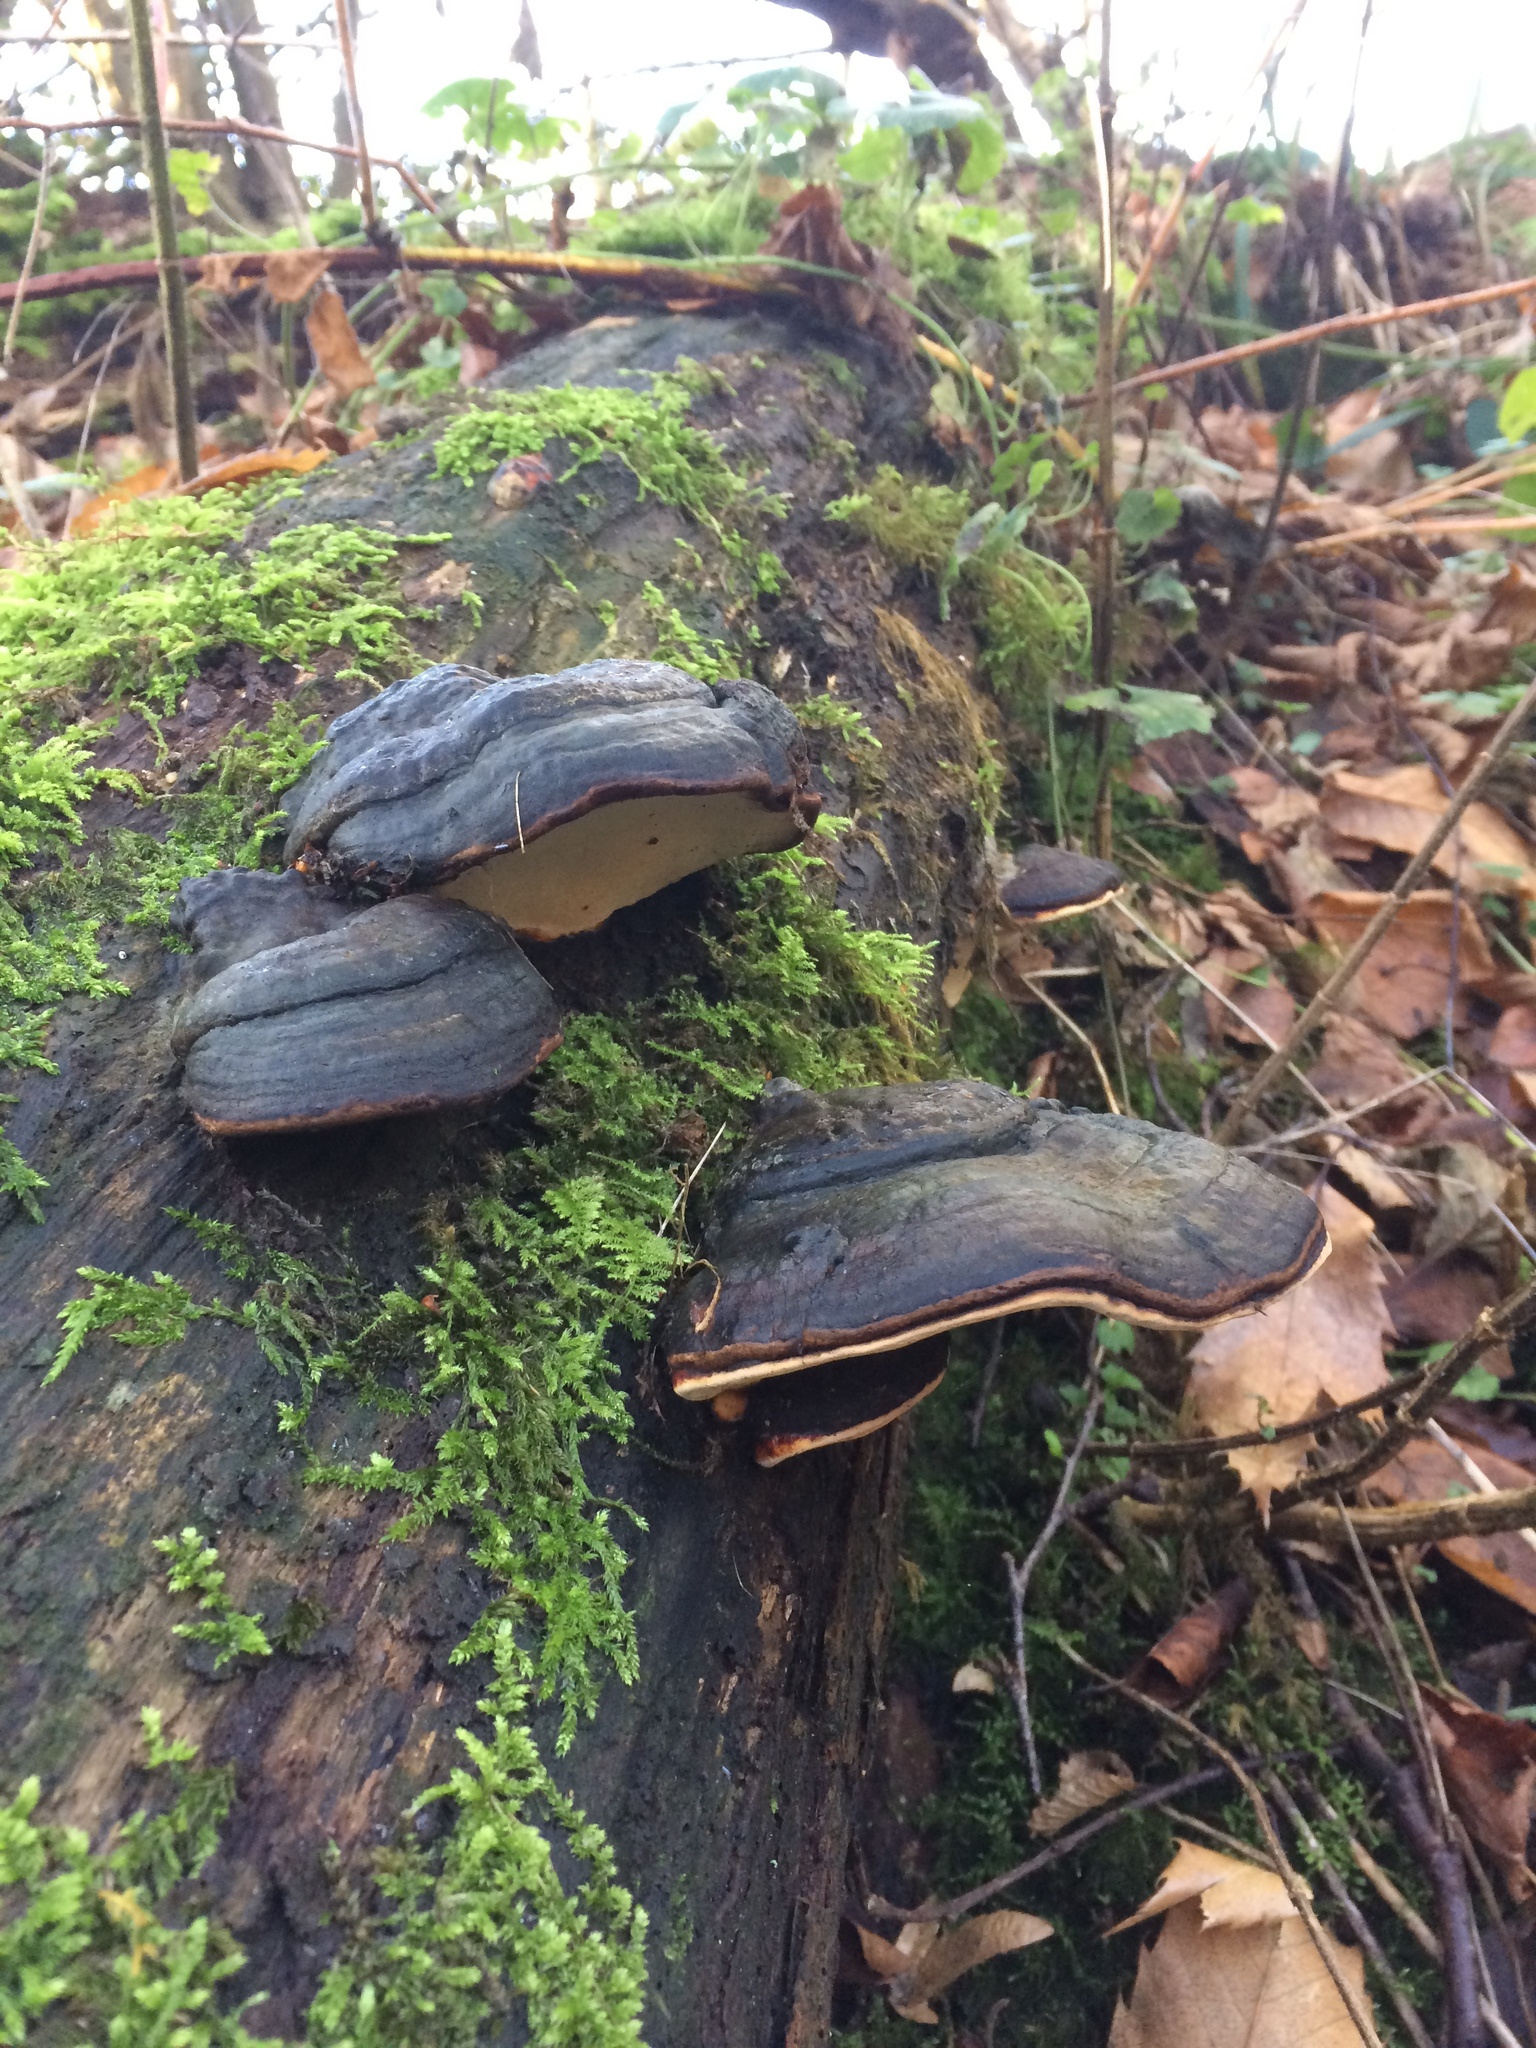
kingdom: Fungi
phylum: Basidiomycota
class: Agaricomycetes
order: Polyporales
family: Fomitopsidaceae
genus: Fomitopsis
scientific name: Fomitopsis pinicola
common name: Red-belted bracket
